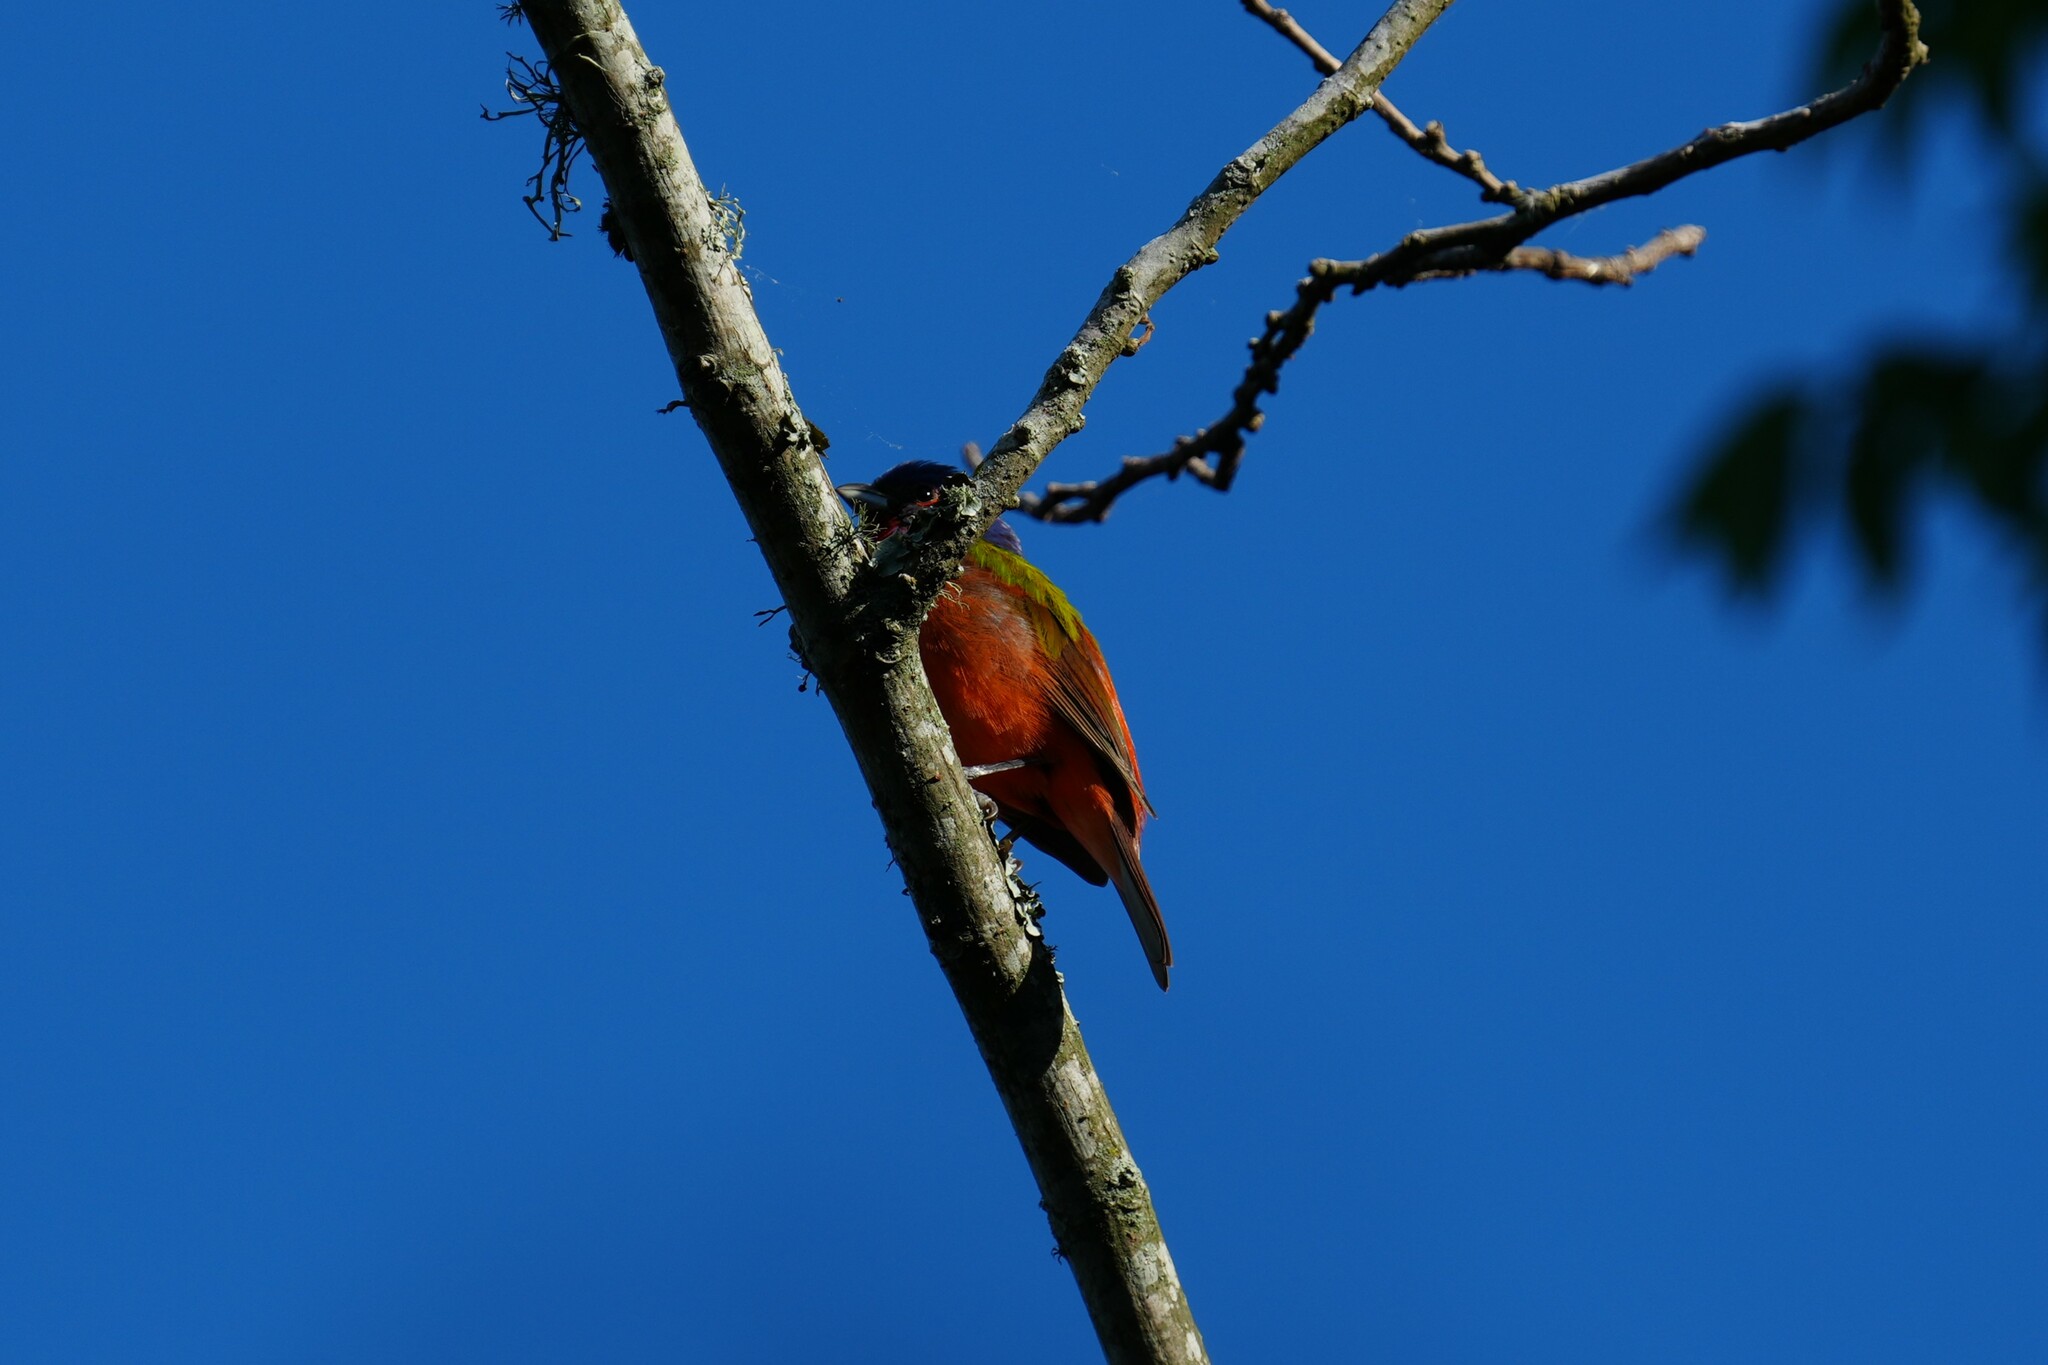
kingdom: Animalia
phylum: Chordata
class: Aves
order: Passeriformes
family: Cardinalidae
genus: Passerina
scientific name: Passerina ciris
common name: Painted bunting
